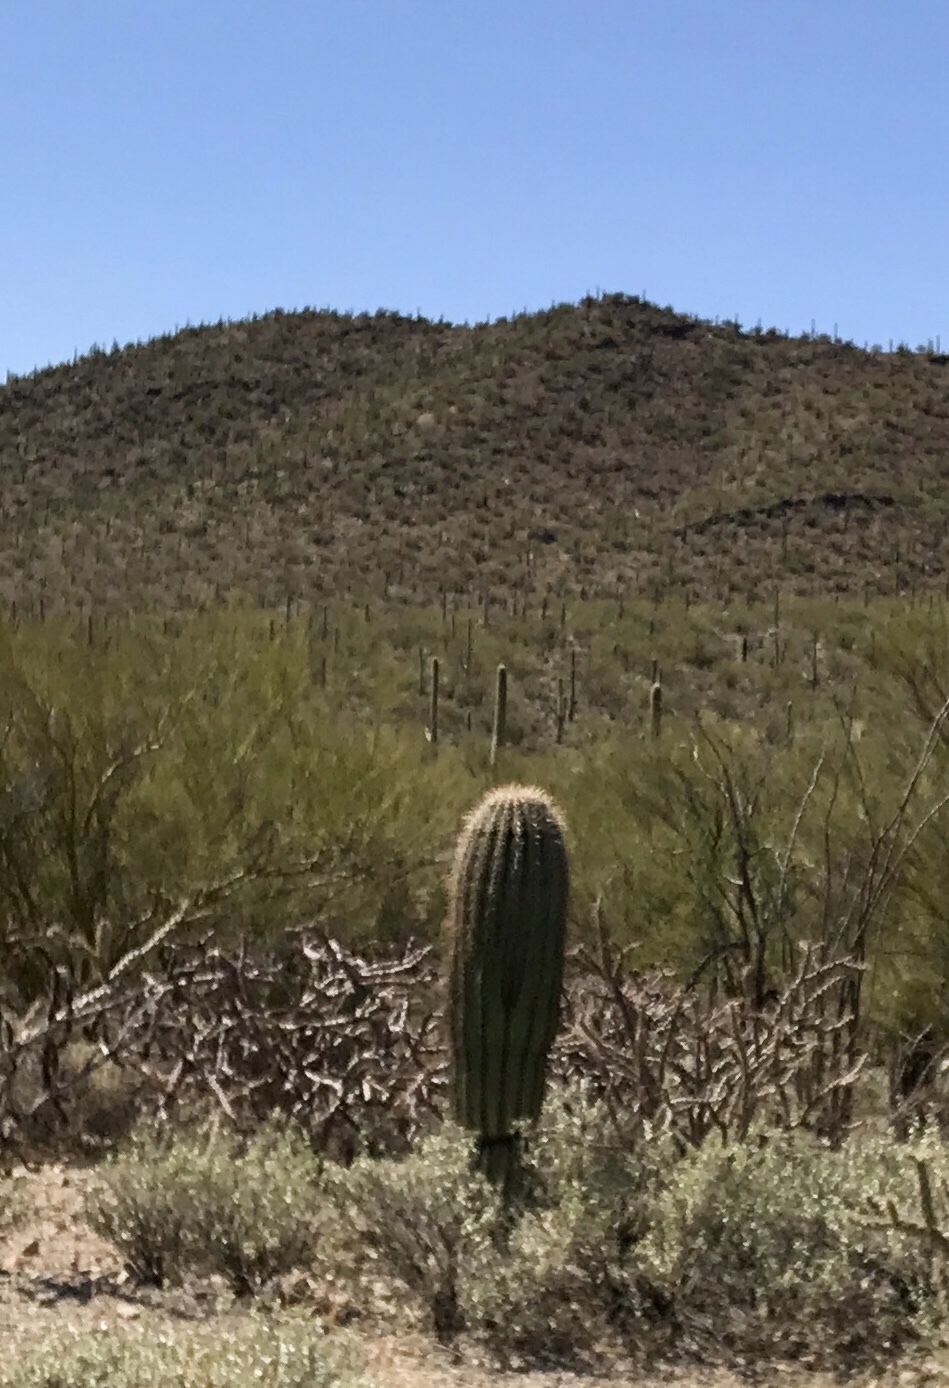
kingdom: Plantae
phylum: Tracheophyta
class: Magnoliopsida
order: Caryophyllales
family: Cactaceae
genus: Carnegiea
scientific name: Carnegiea gigantea
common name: Saguaro
